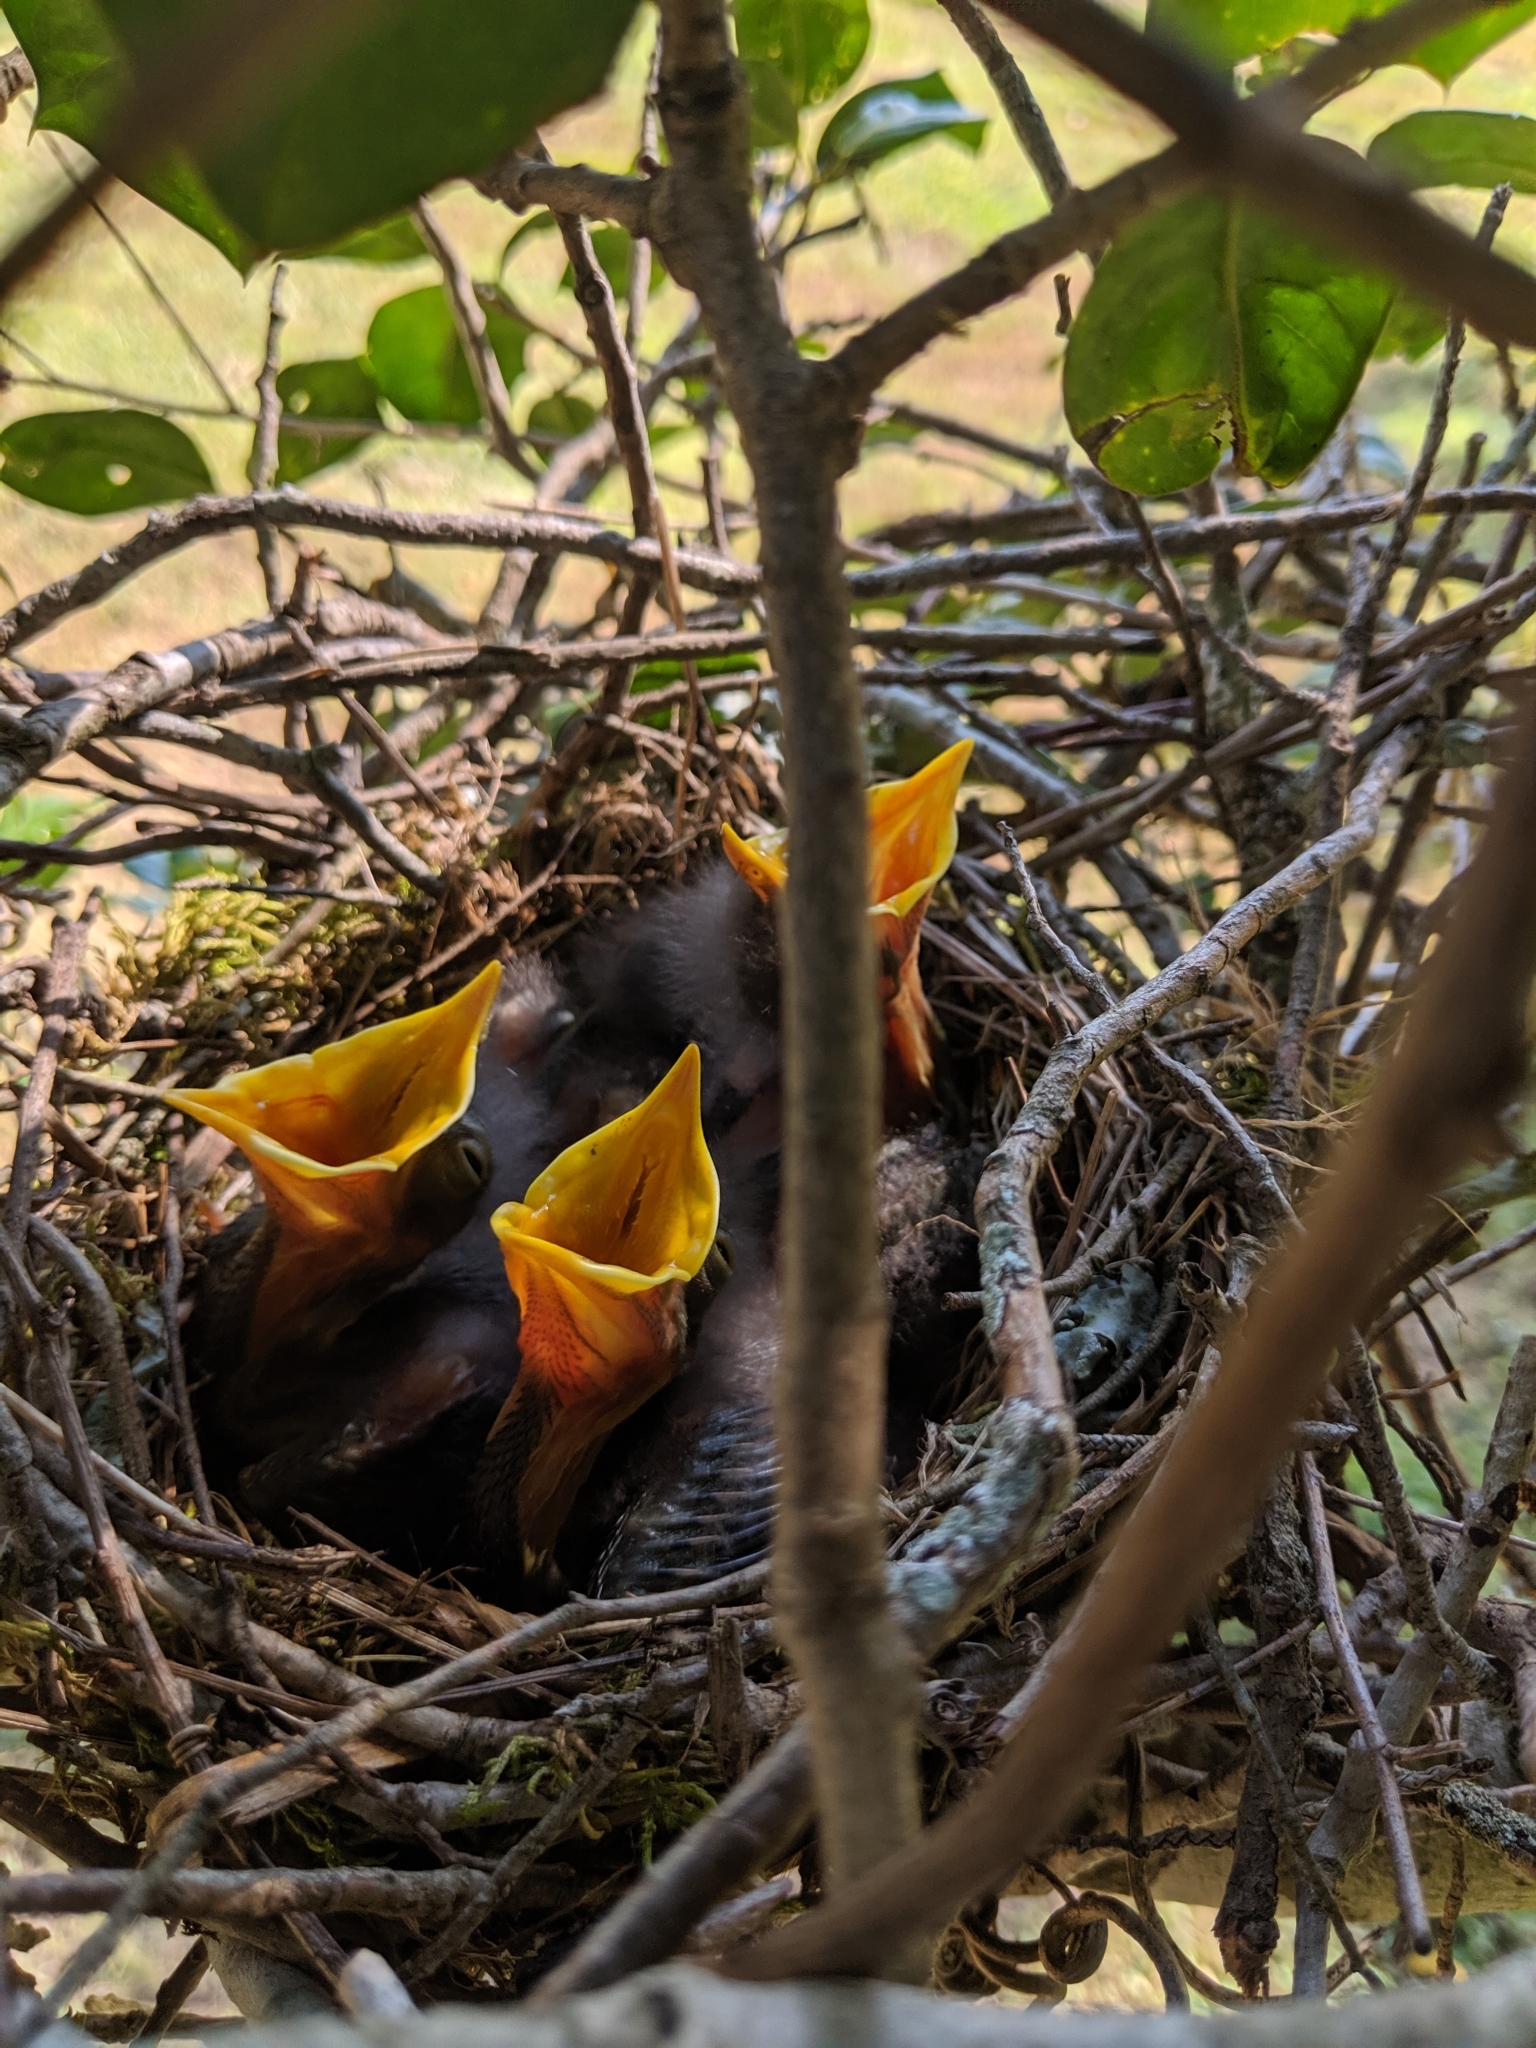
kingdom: Animalia
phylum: Chordata
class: Aves
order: Passeriformes
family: Mimidae
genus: Mimus
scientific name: Mimus polyglottos
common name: Northern mockingbird
